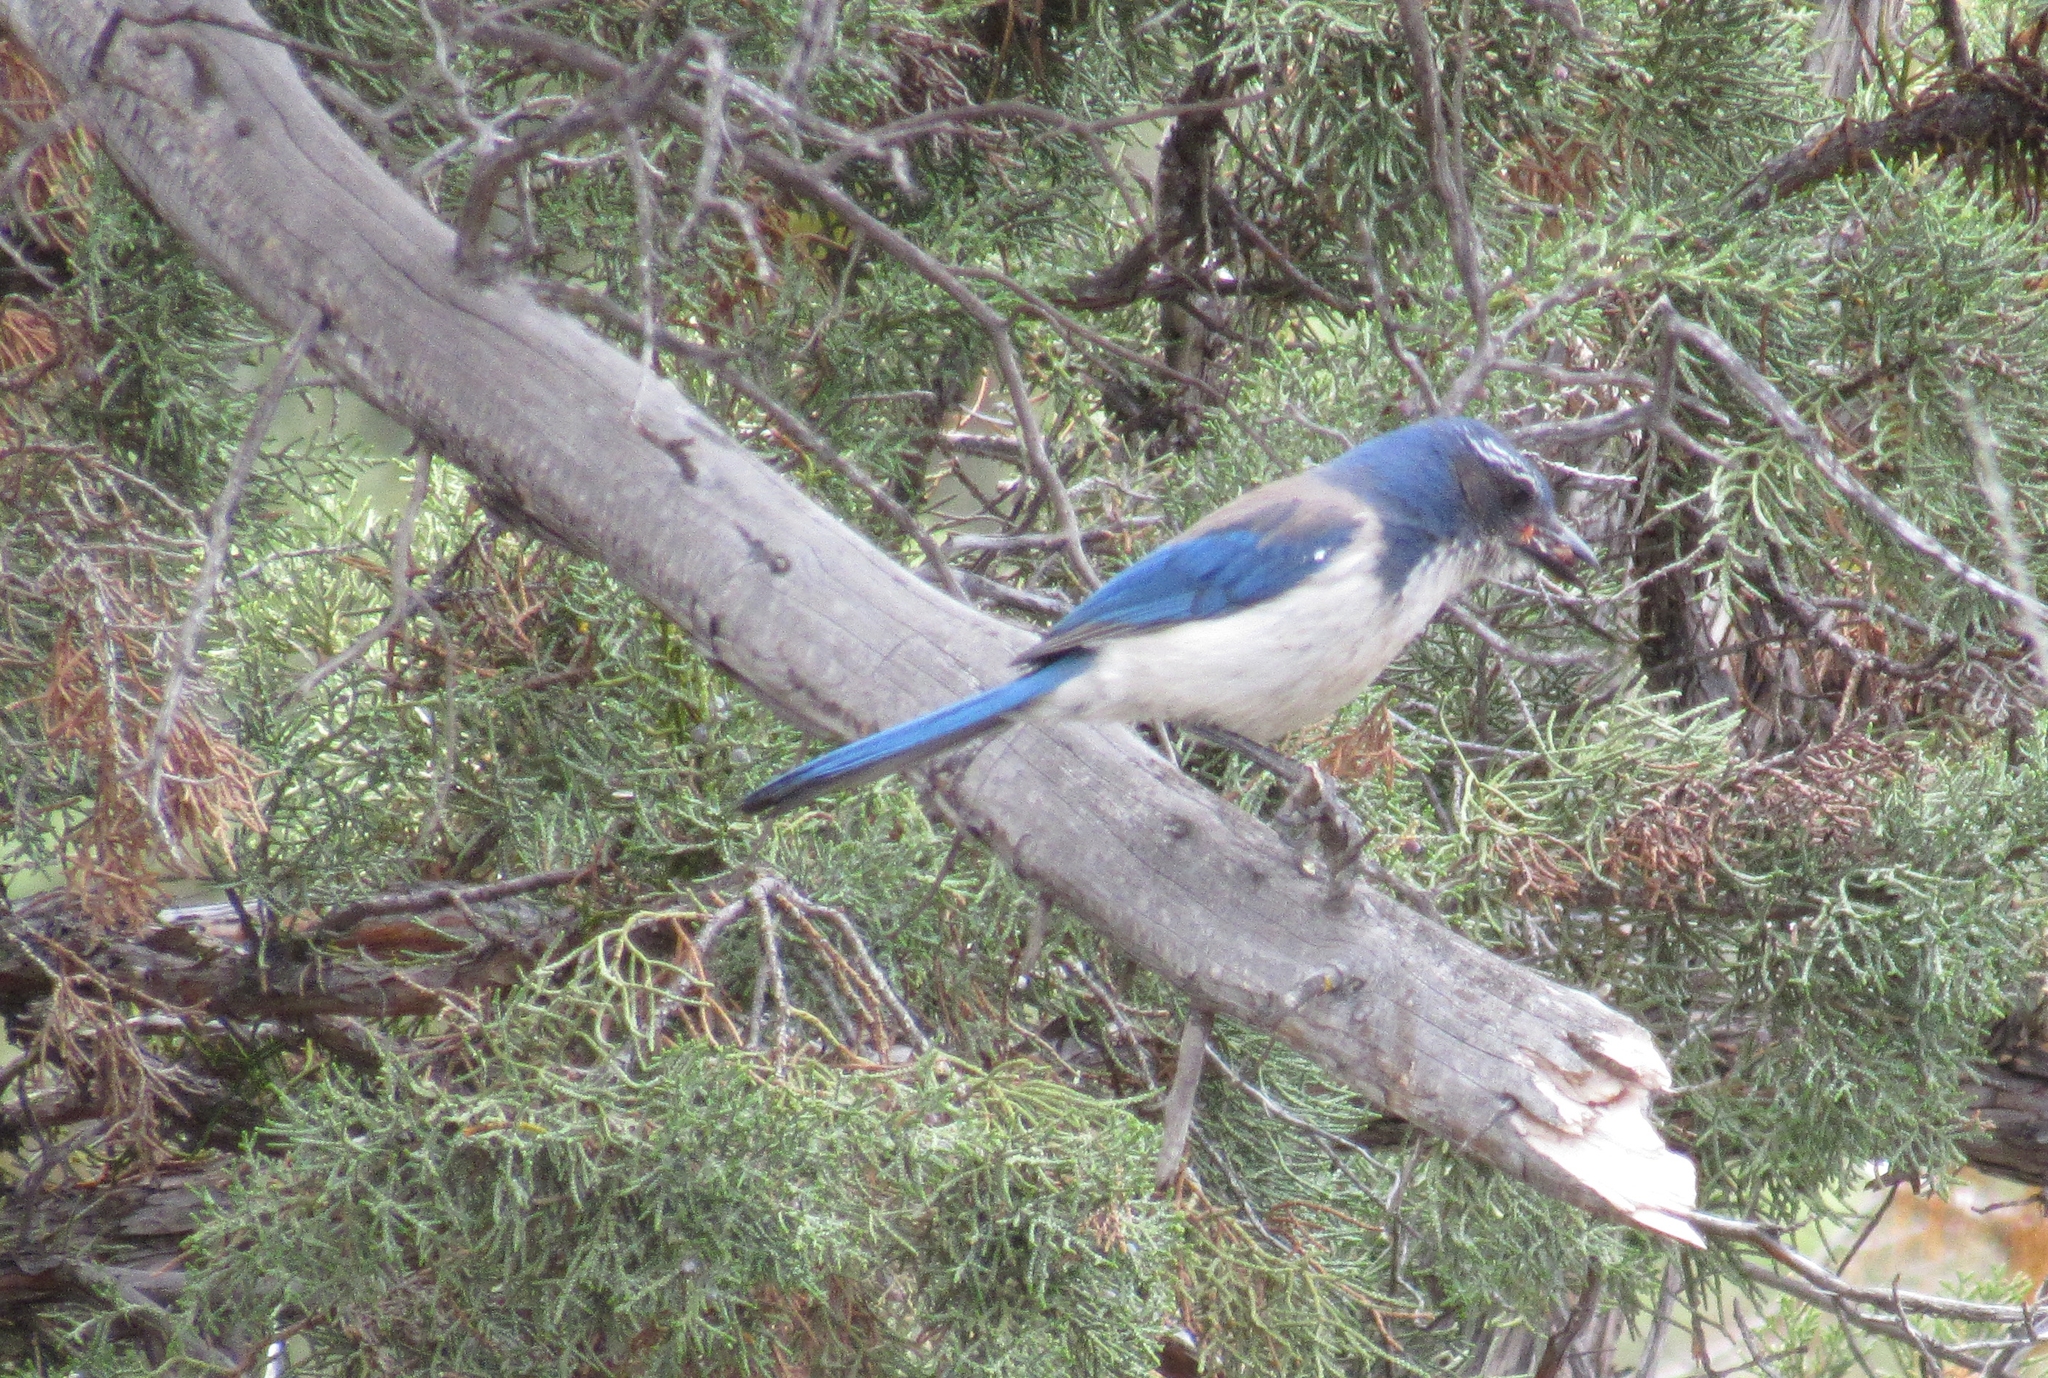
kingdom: Animalia
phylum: Chordata
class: Aves
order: Passeriformes
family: Corvidae
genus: Aphelocoma
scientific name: Aphelocoma californica
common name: California scrub-jay
